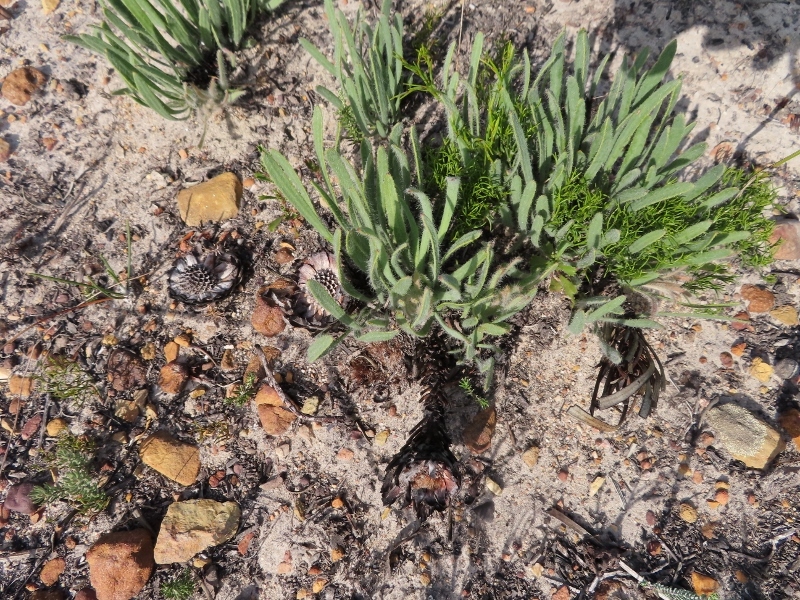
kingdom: Plantae
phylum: Tracheophyta
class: Magnoliopsida
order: Proteales
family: Proteaceae
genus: Protea
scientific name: Protea aspera
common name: Rough-leaf sugarbush
